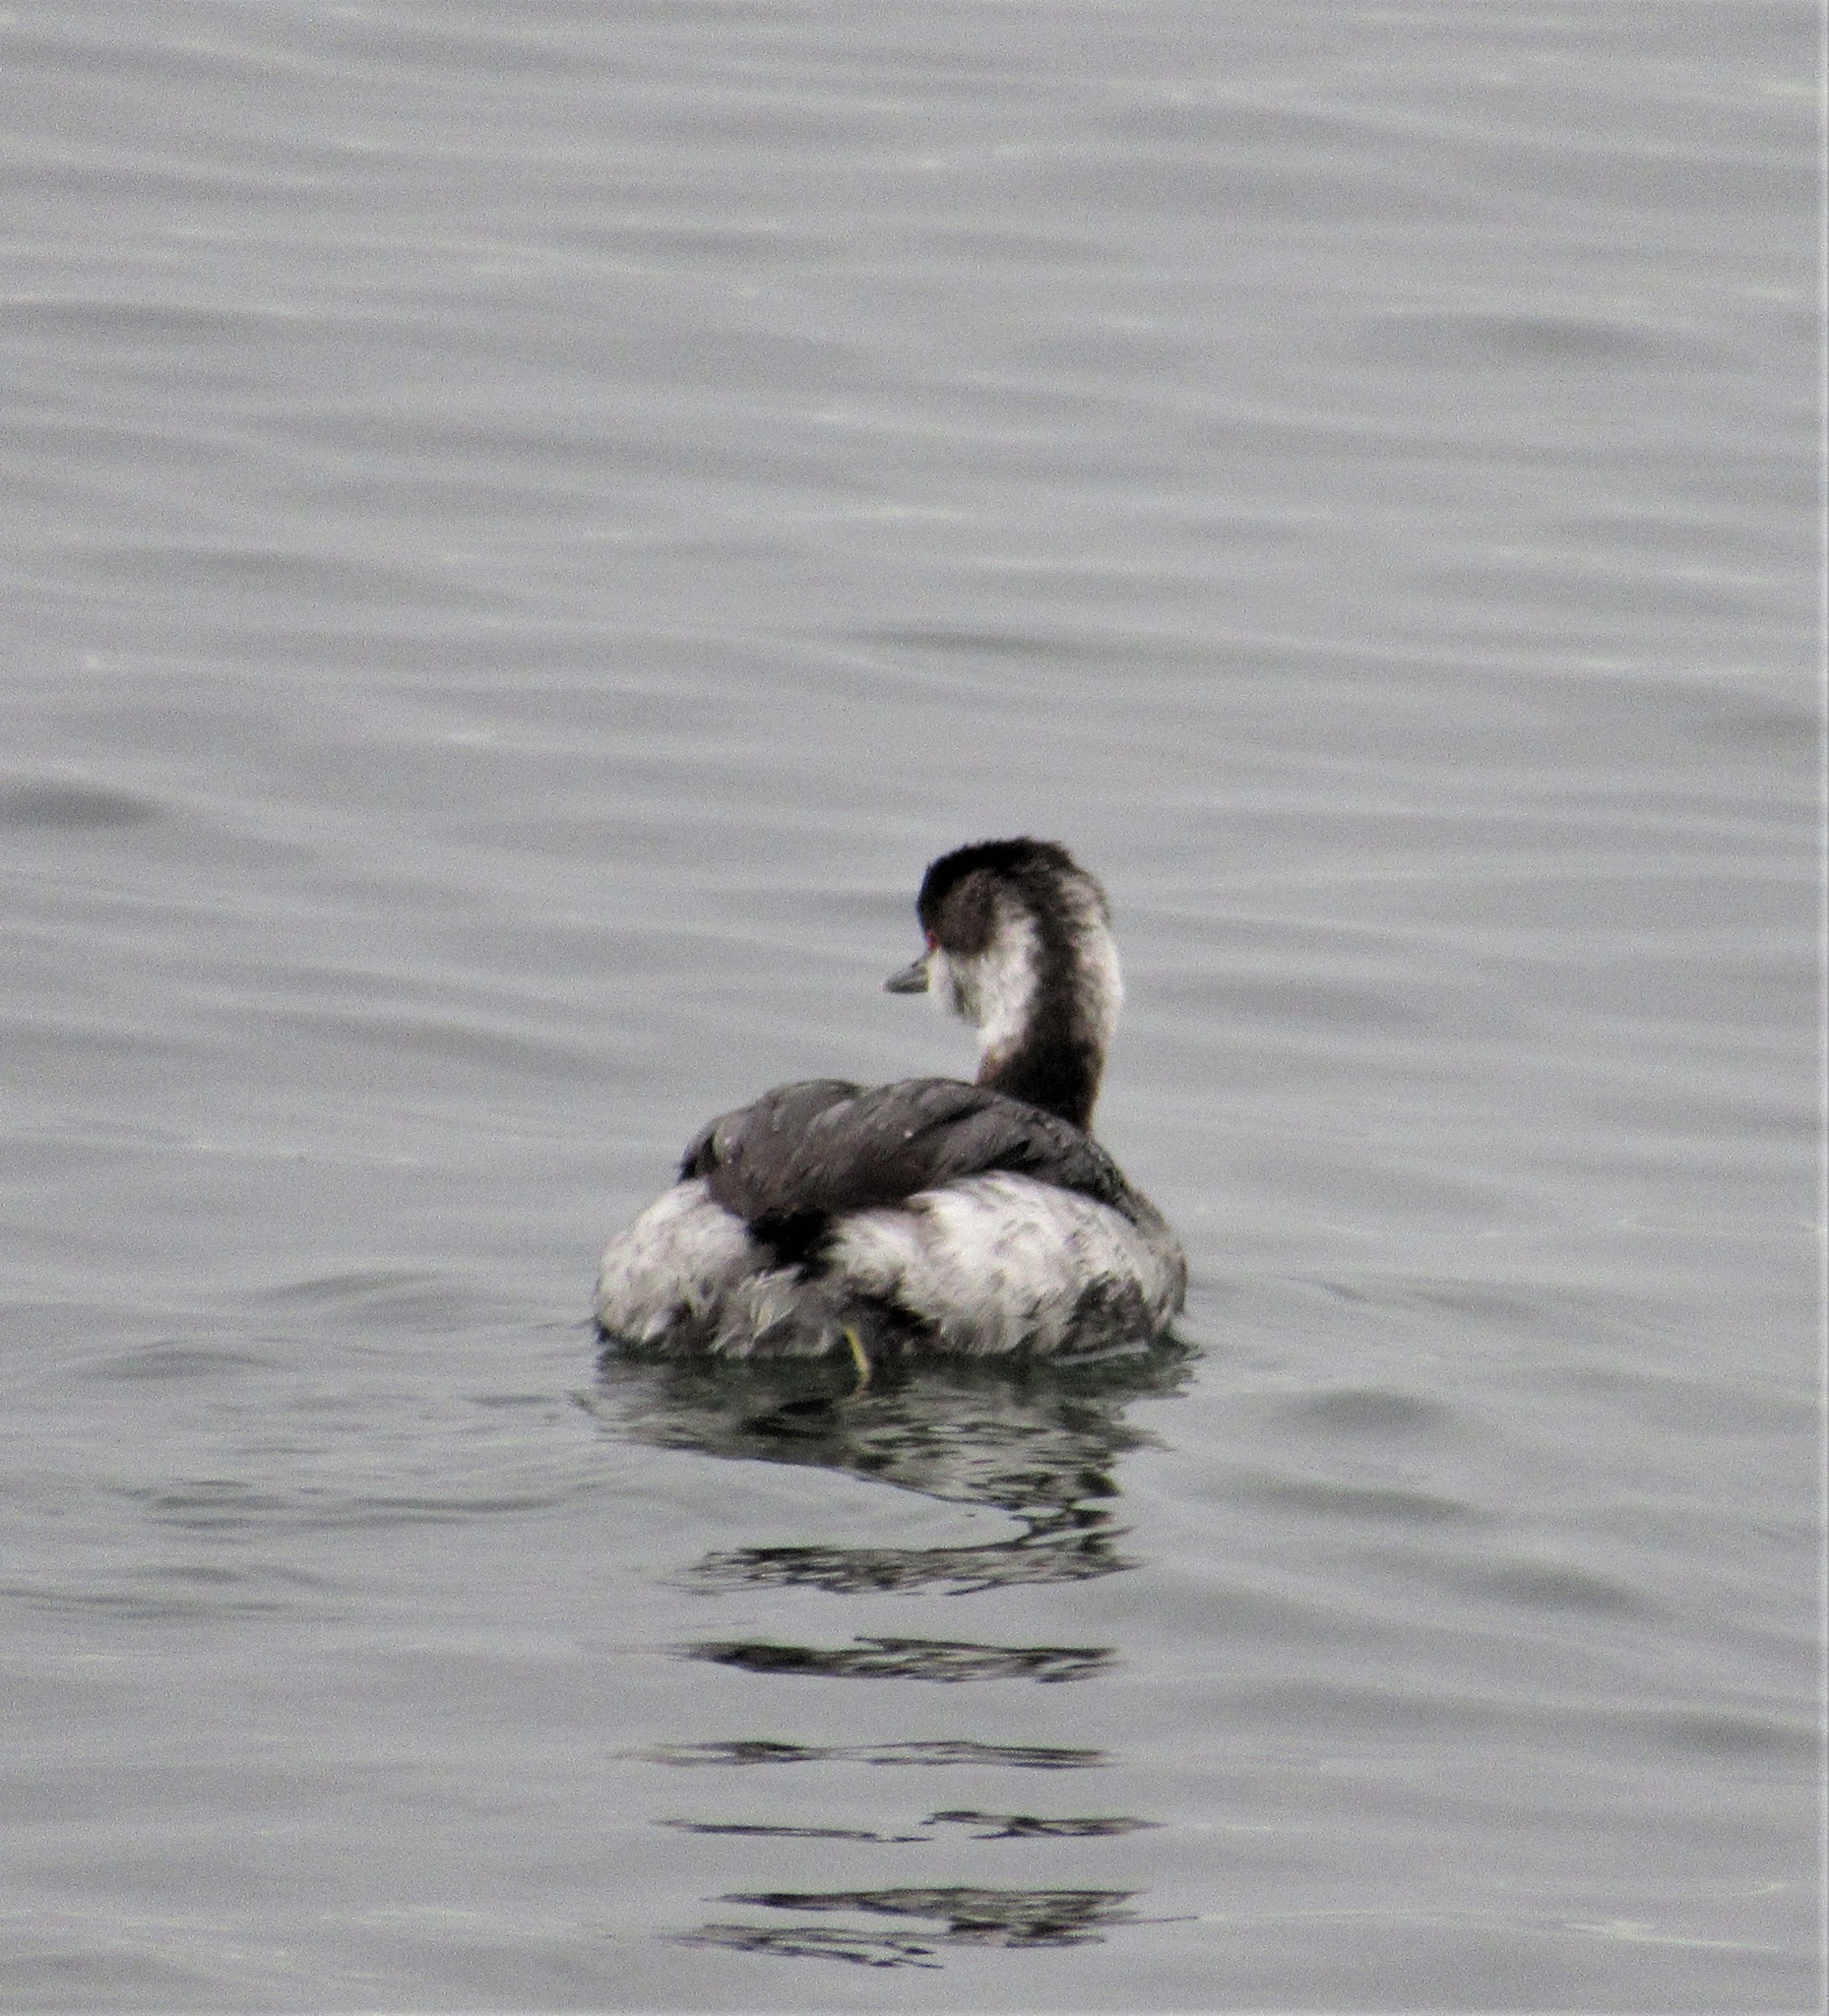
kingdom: Animalia
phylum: Chordata
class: Aves
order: Podicipediformes
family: Podicipedidae
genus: Podiceps
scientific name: Podiceps auritus
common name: Horned grebe
